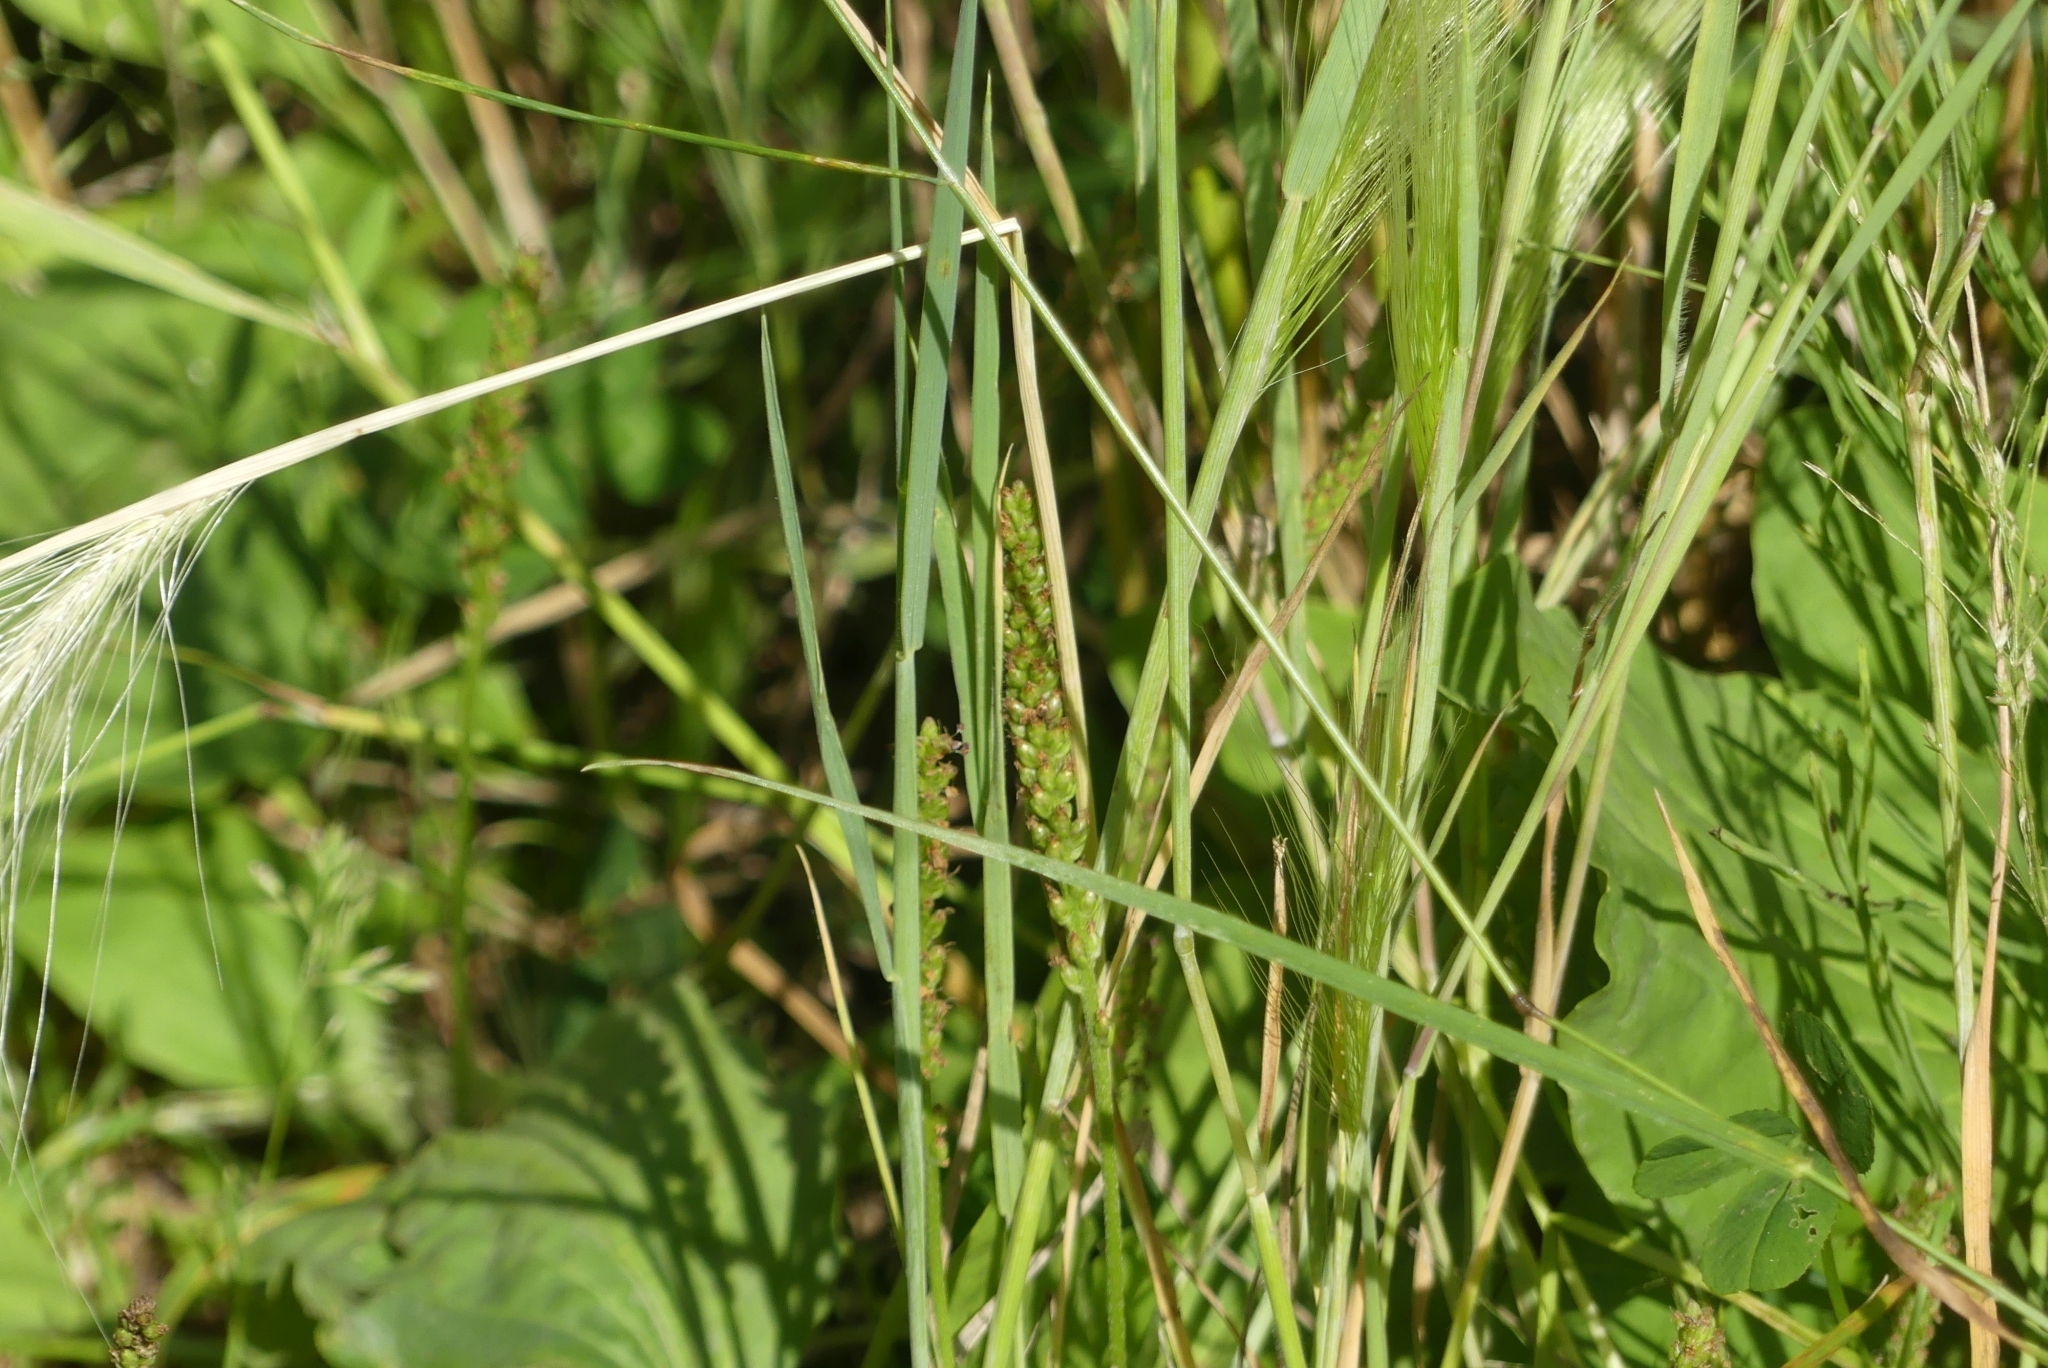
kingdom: Plantae
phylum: Tracheophyta
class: Liliopsida
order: Poales
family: Poaceae
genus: Hordeum
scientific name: Hordeum jubatum
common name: Foxtail barley
